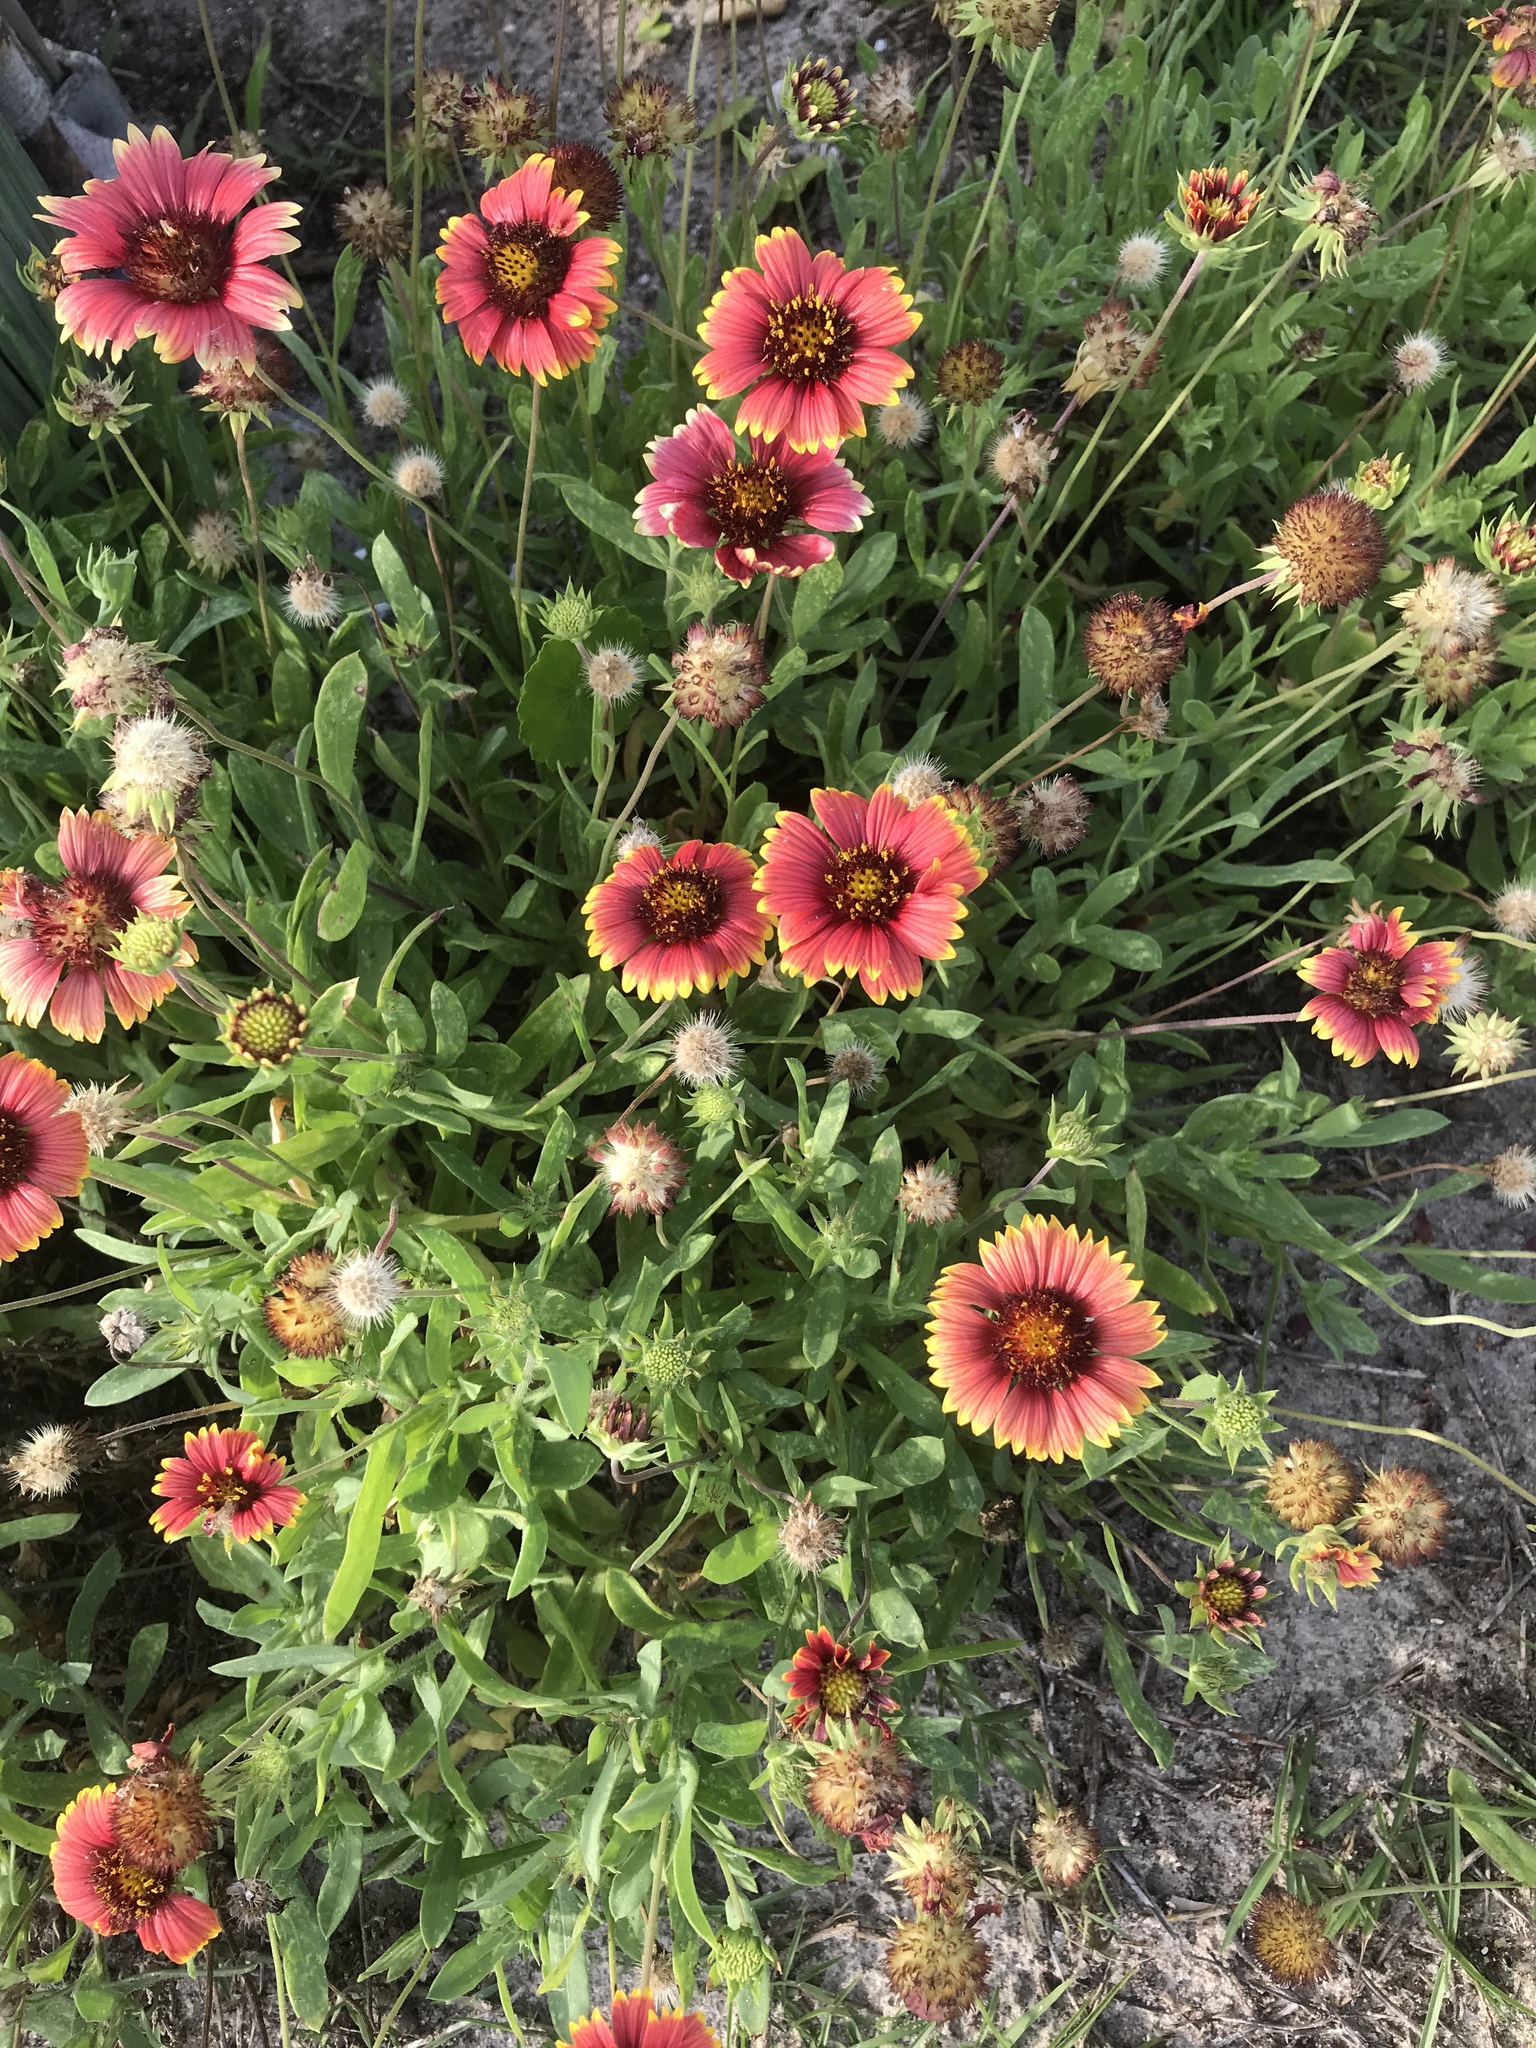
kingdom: Plantae
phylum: Tracheophyta
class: Magnoliopsida
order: Asterales
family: Asteraceae
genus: Gaillardia
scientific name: Gaillardia pulchella
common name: Firewheel
